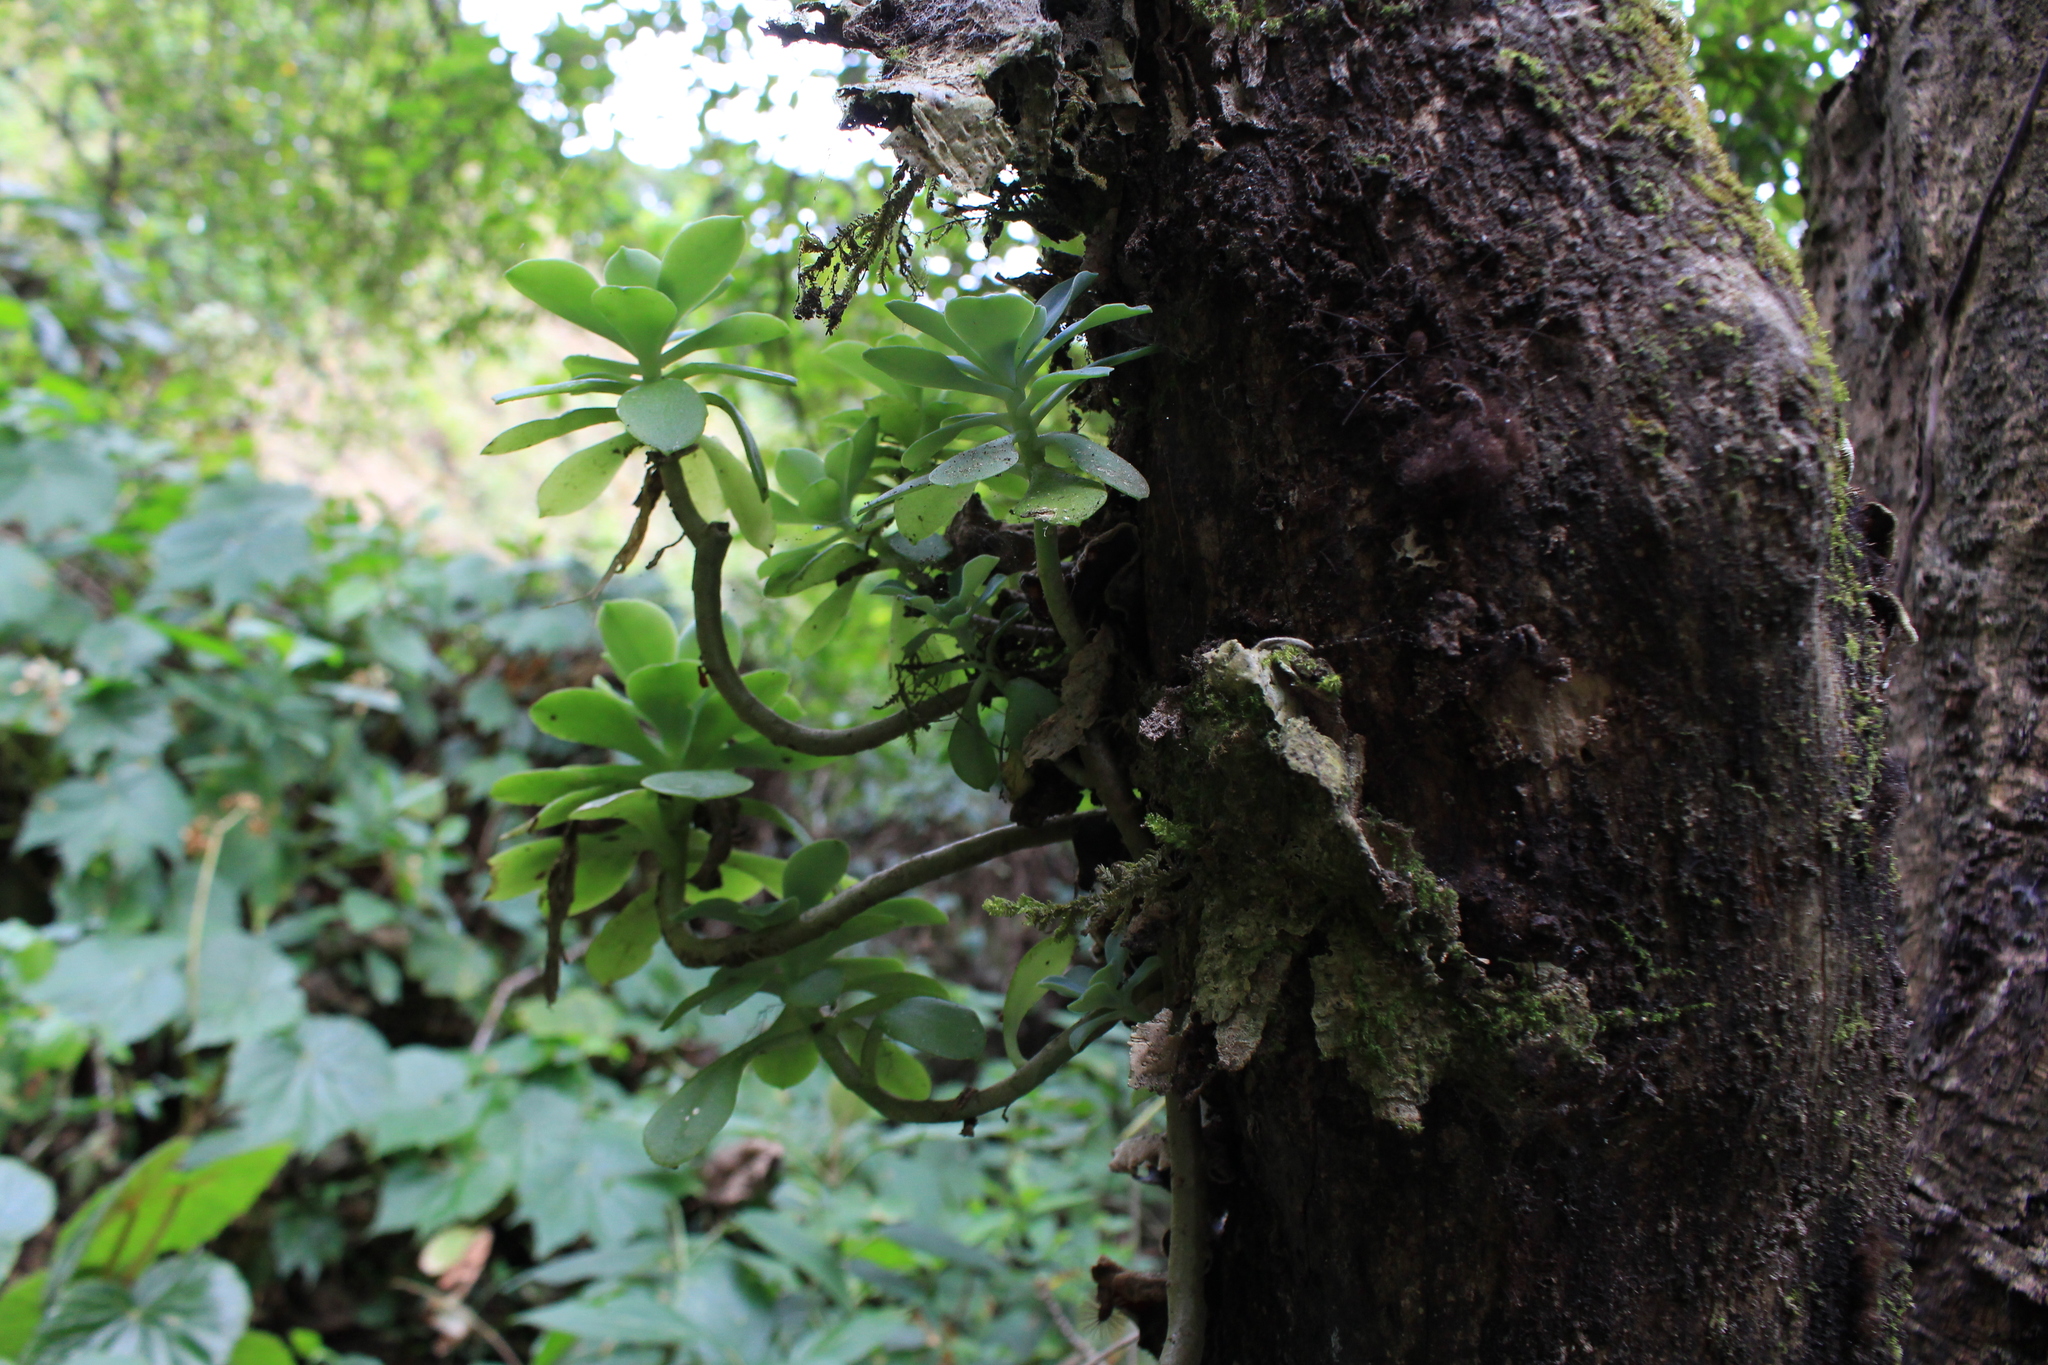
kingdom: Plantae
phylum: Tracheophyta
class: Magnoliopsida
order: Saxifragales
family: Crassulaceae
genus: Echeveria
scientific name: Echeveria australis
